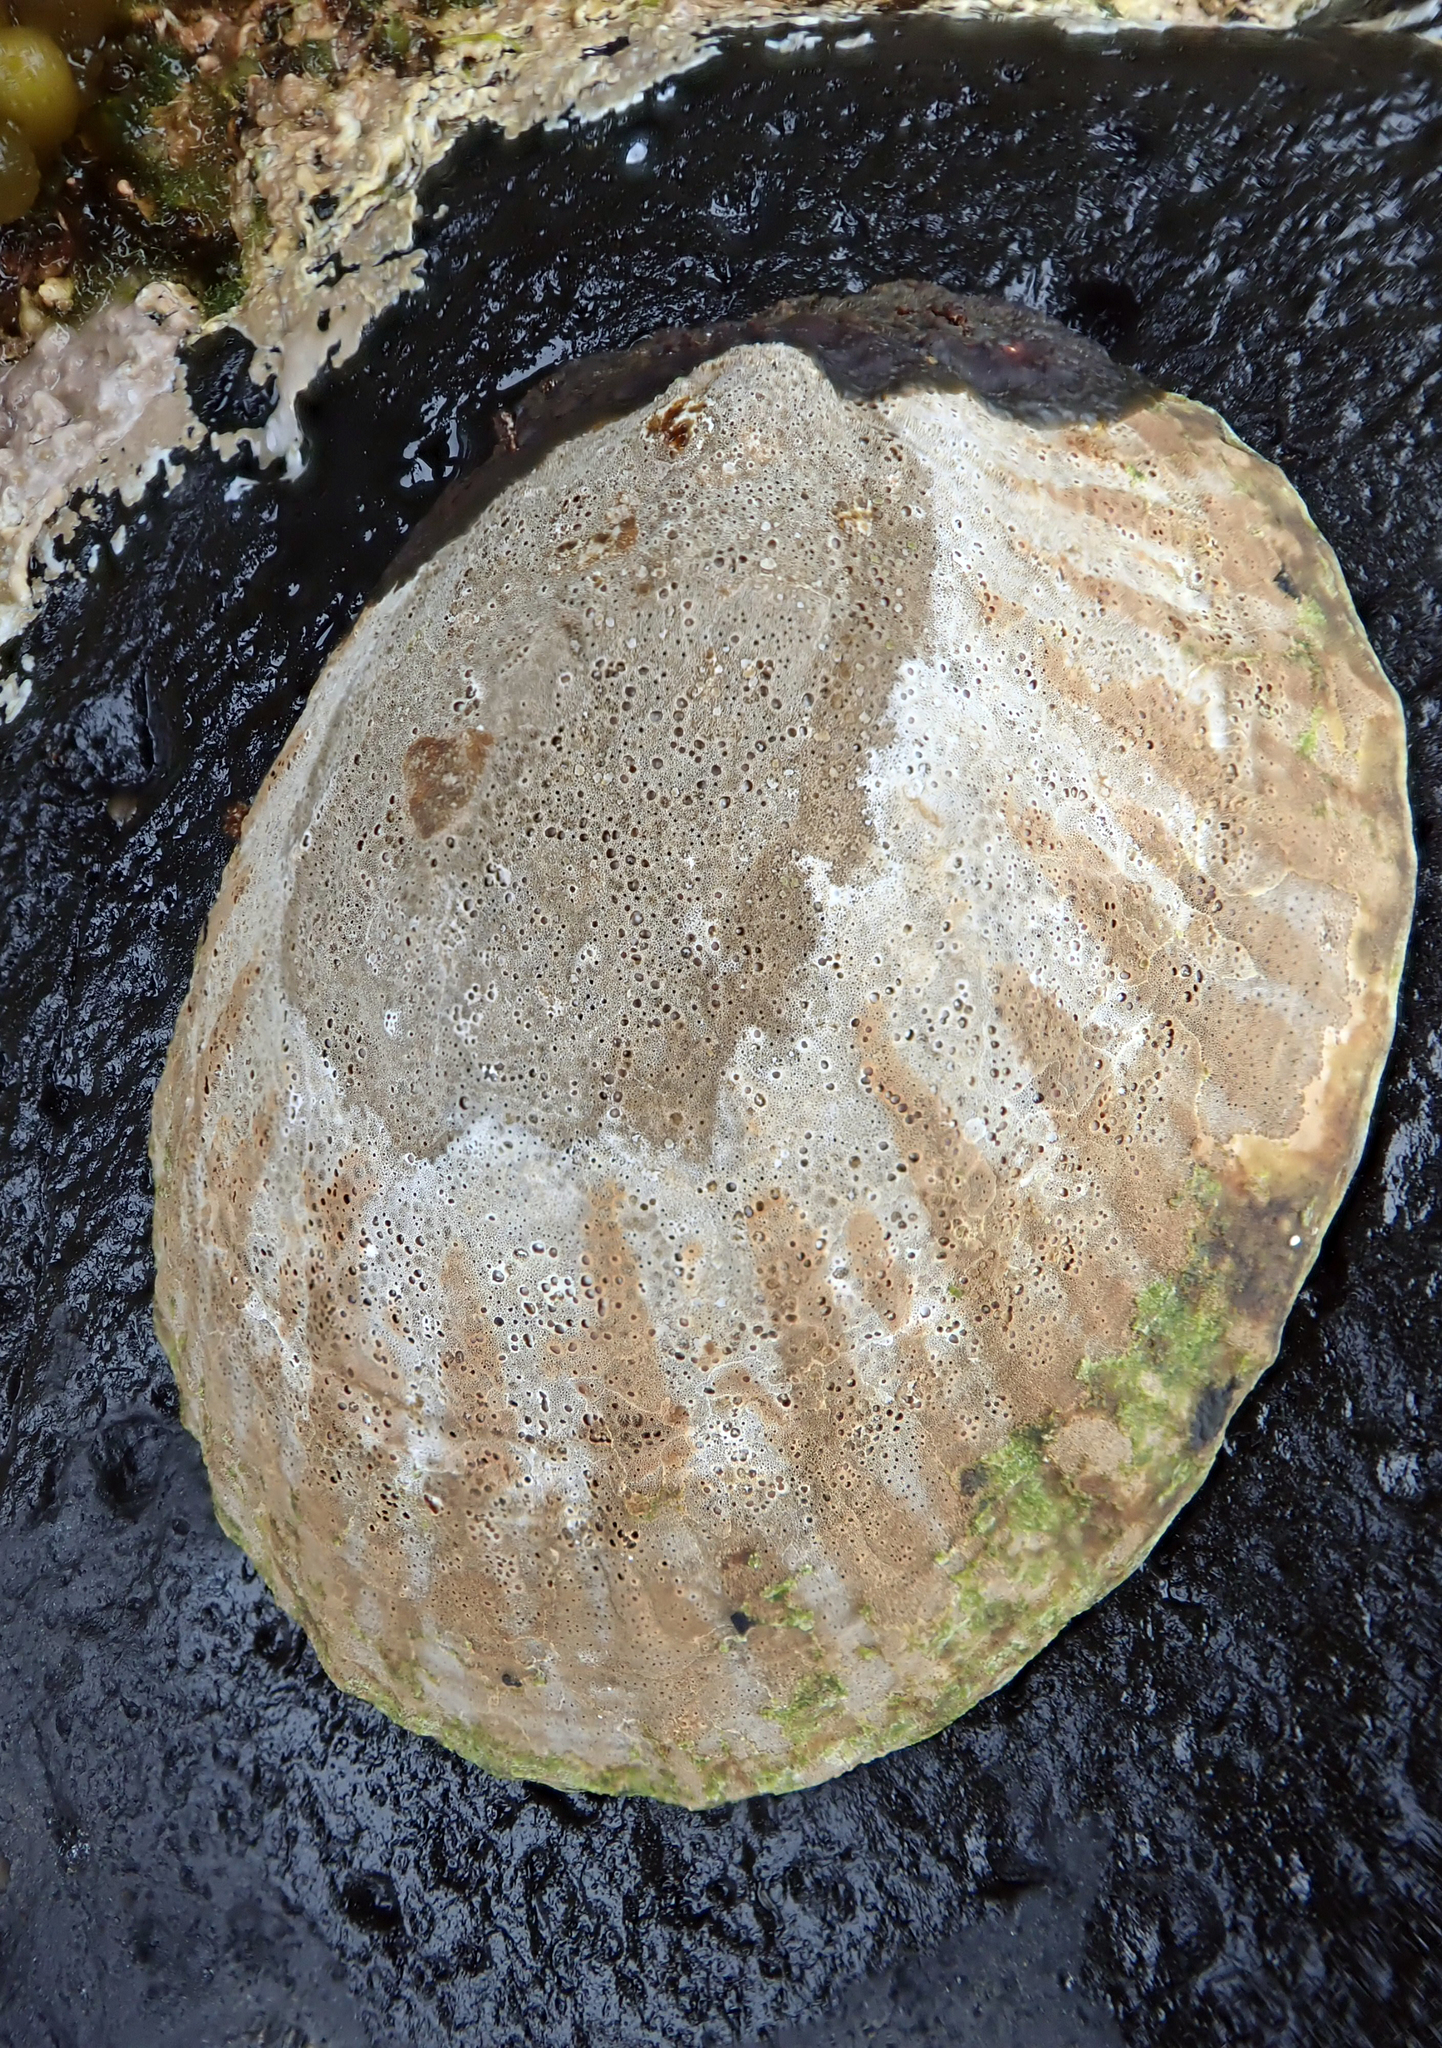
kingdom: Animalia
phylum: Mollusca
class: Gastropoda
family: Nacellidae
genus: Cellana
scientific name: Cellana oliveri
